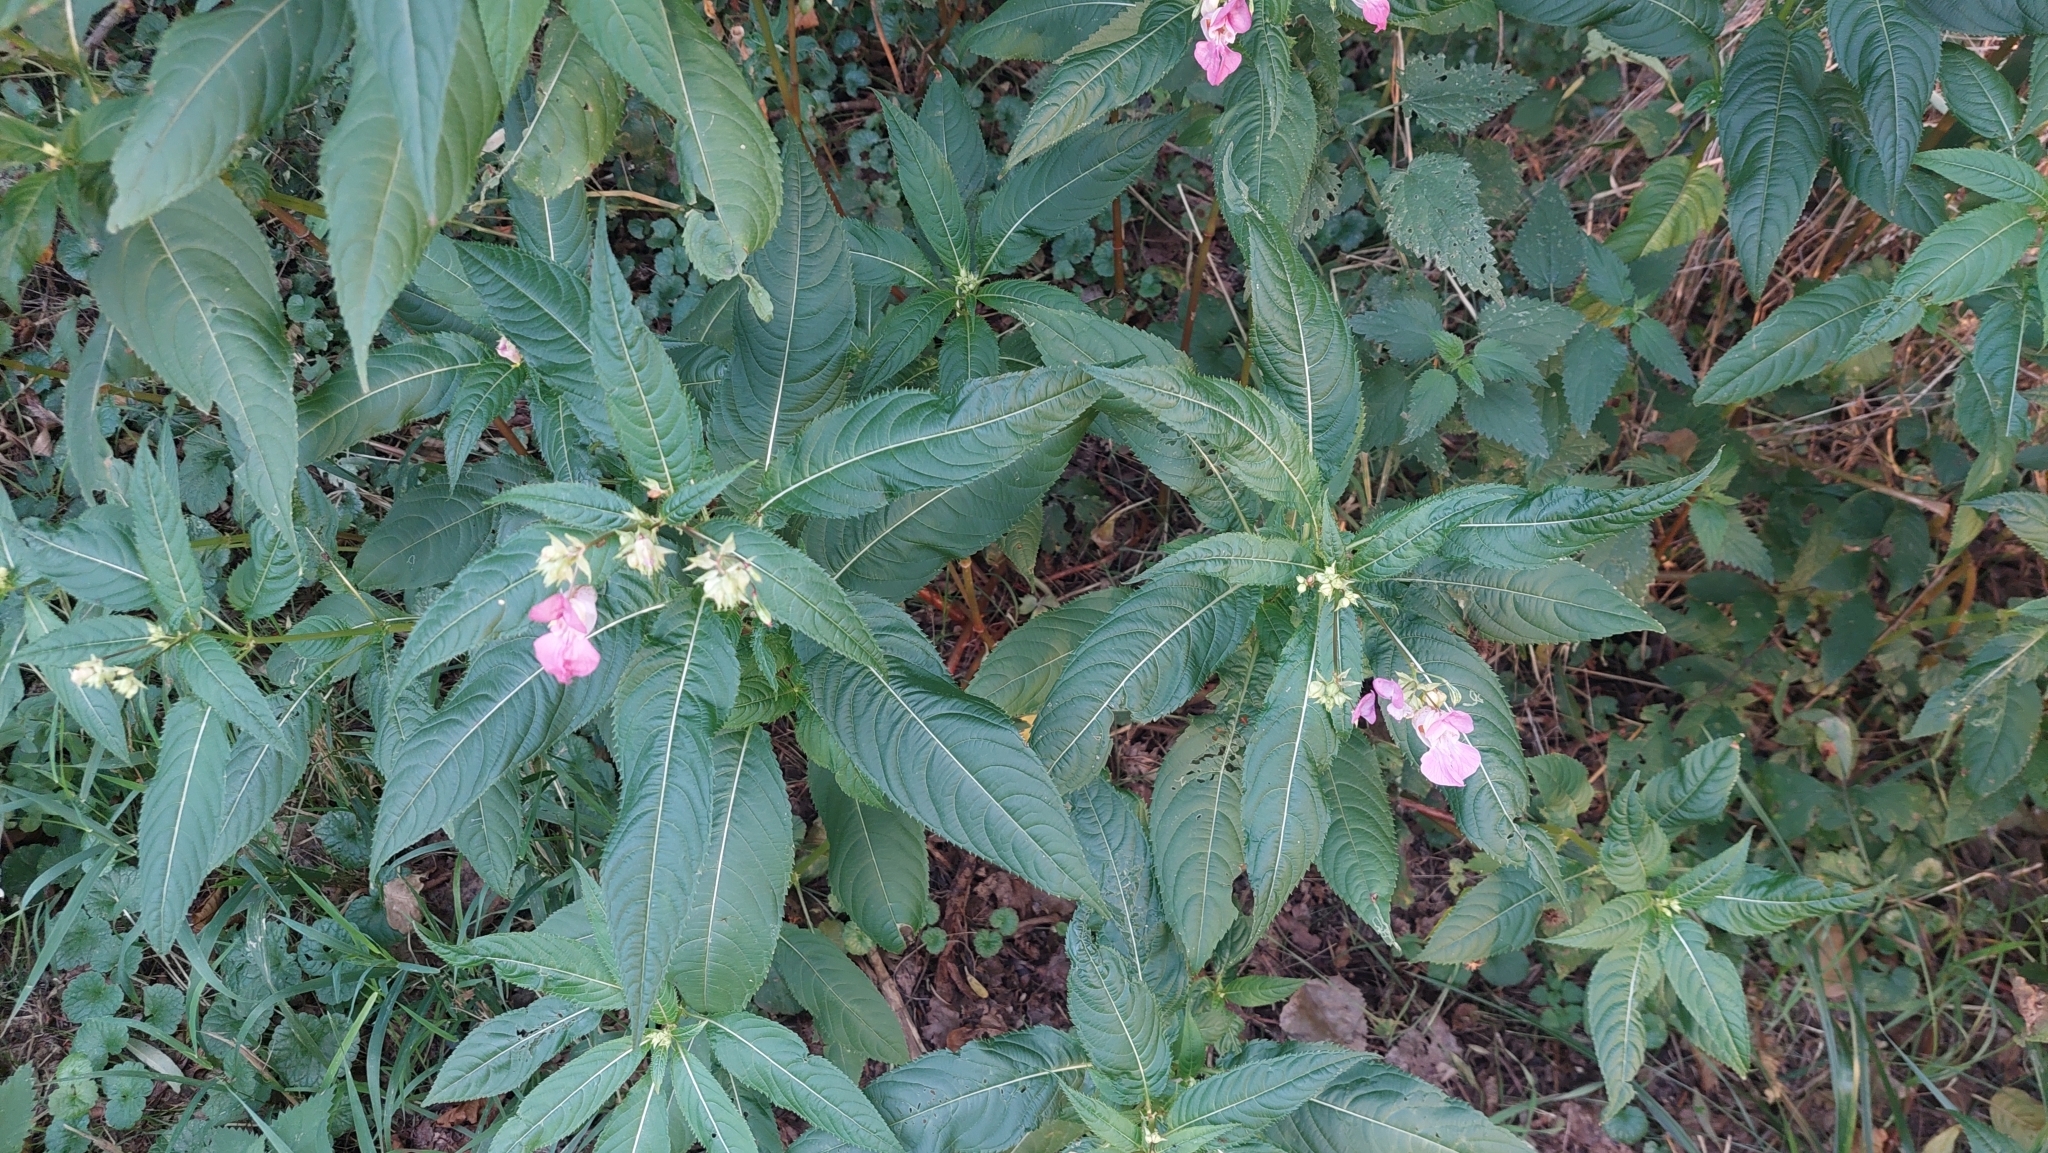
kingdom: Plantae
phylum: Tracheophyta
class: Magnoliopsida
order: Ericales
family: Balsaminaceae
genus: Impatiens
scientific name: Impatiens glandulifera
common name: Himalayan balsam
